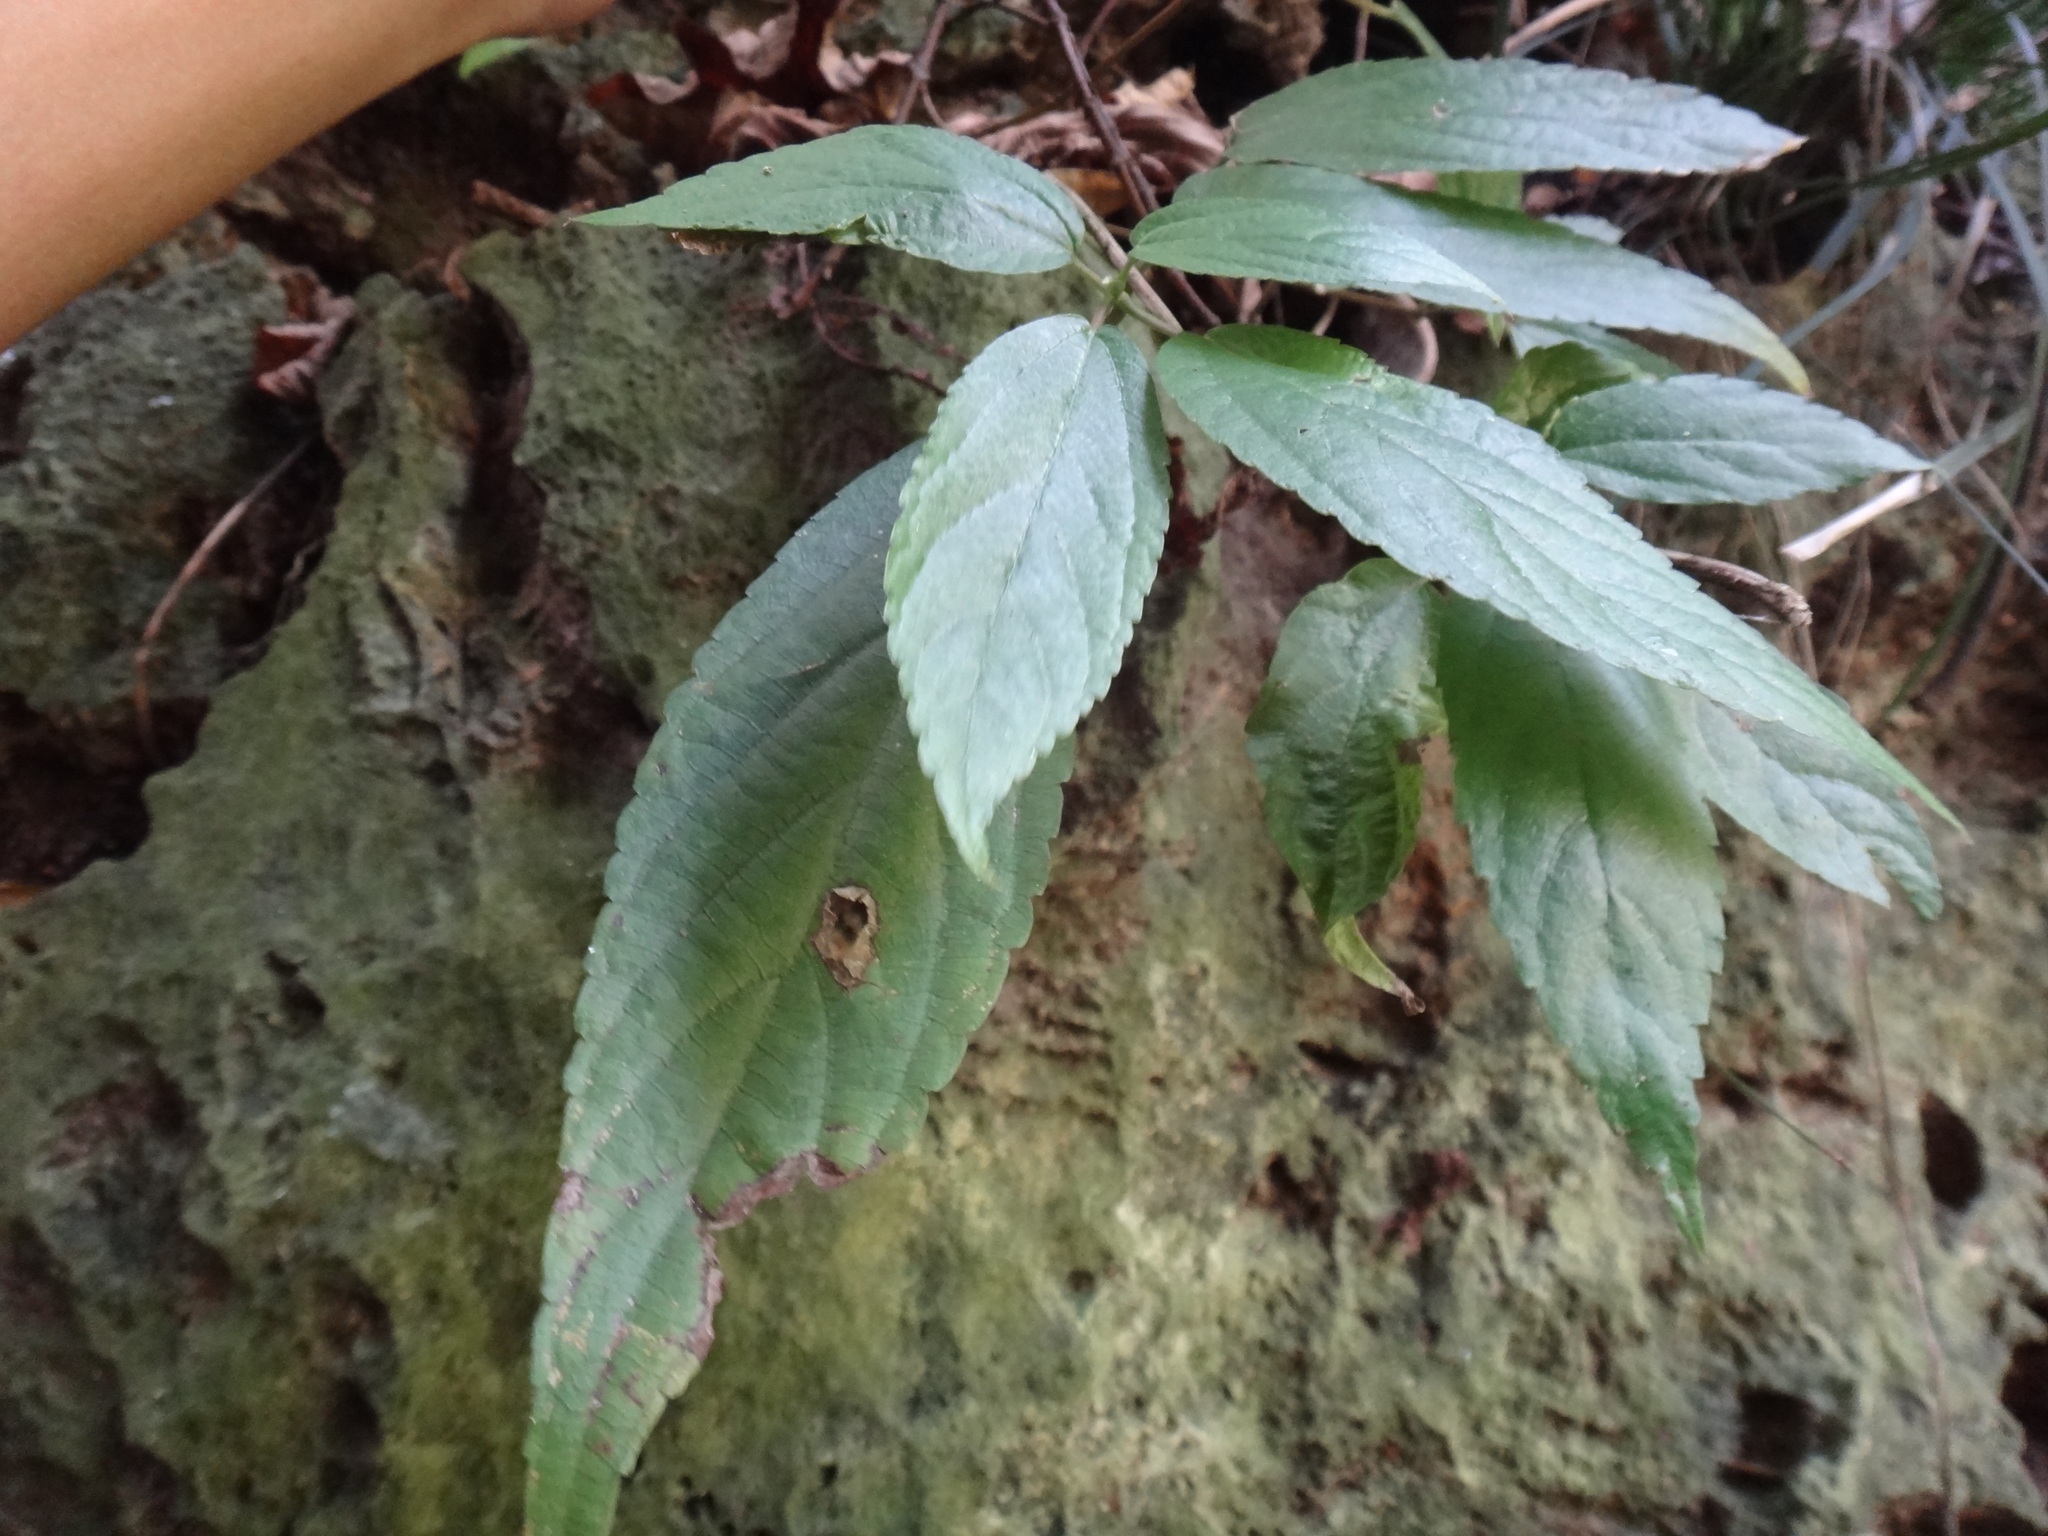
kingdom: Plantae
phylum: Tracheophyta
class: Magnoliopsida
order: Rosales
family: Urticaceae
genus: Boehmeria
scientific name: Boehmeria zollingeriana
